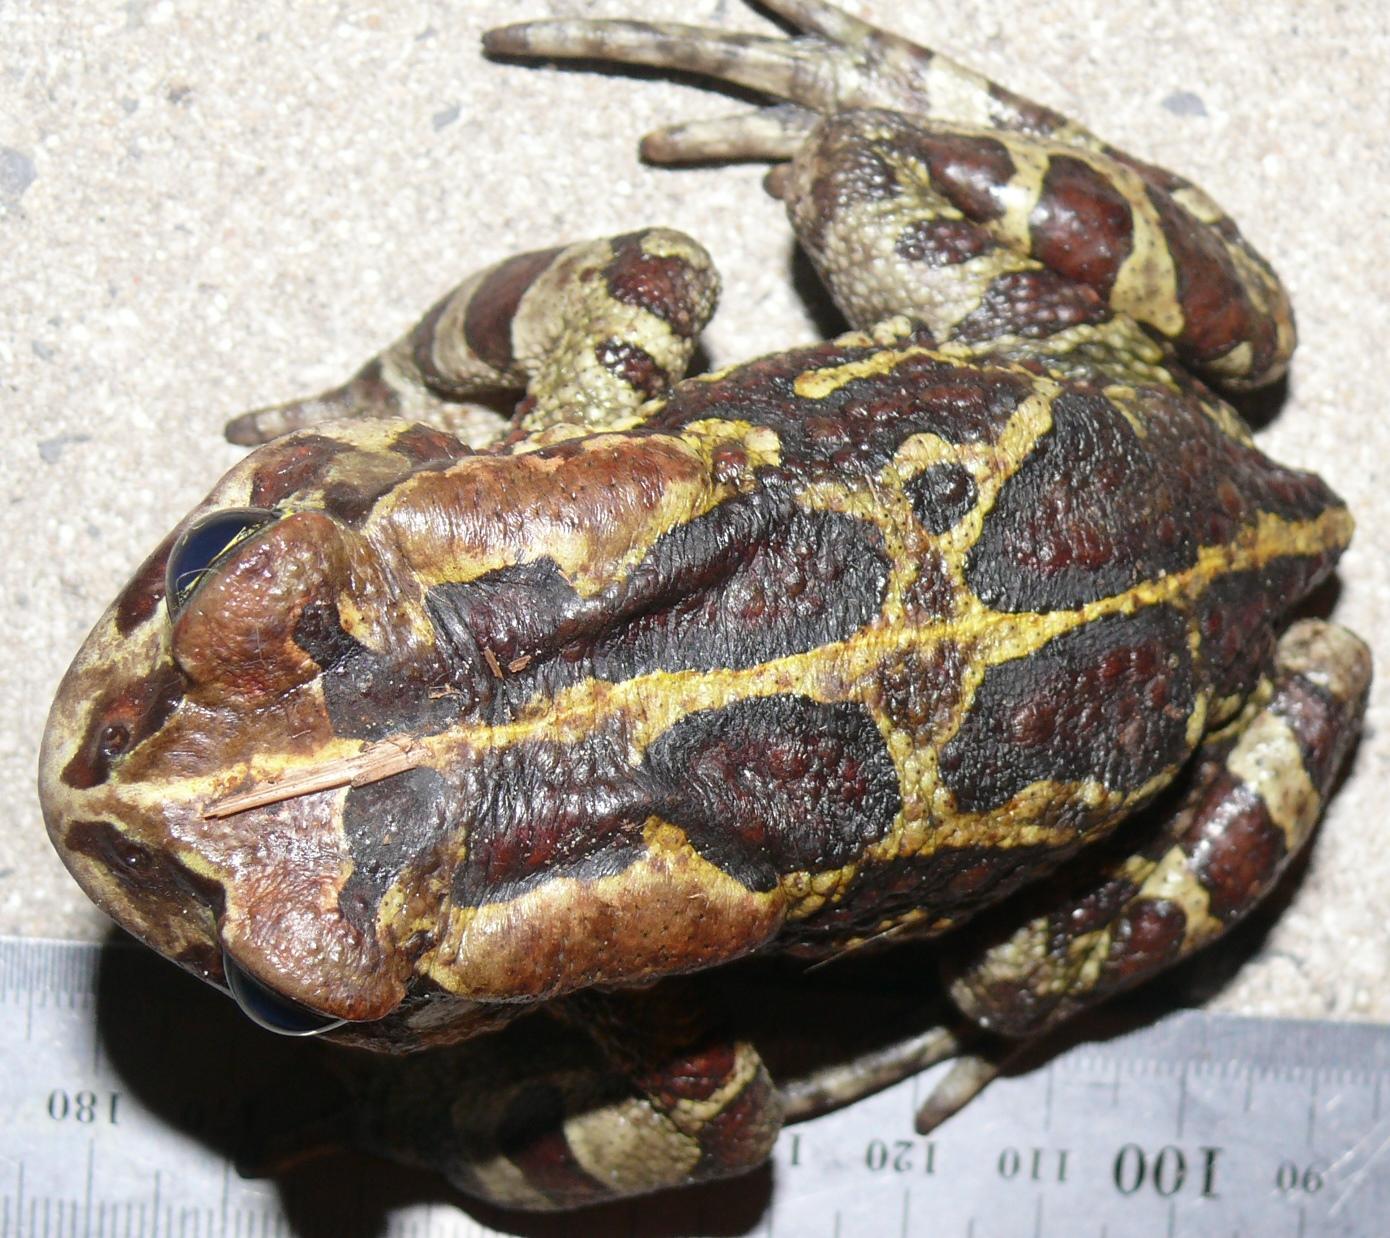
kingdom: Animalia
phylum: Chordata
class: Amphibia
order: Anura
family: Bufonidae
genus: Sclerophrys
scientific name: Sclerophrys pantherina
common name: Panther toad
